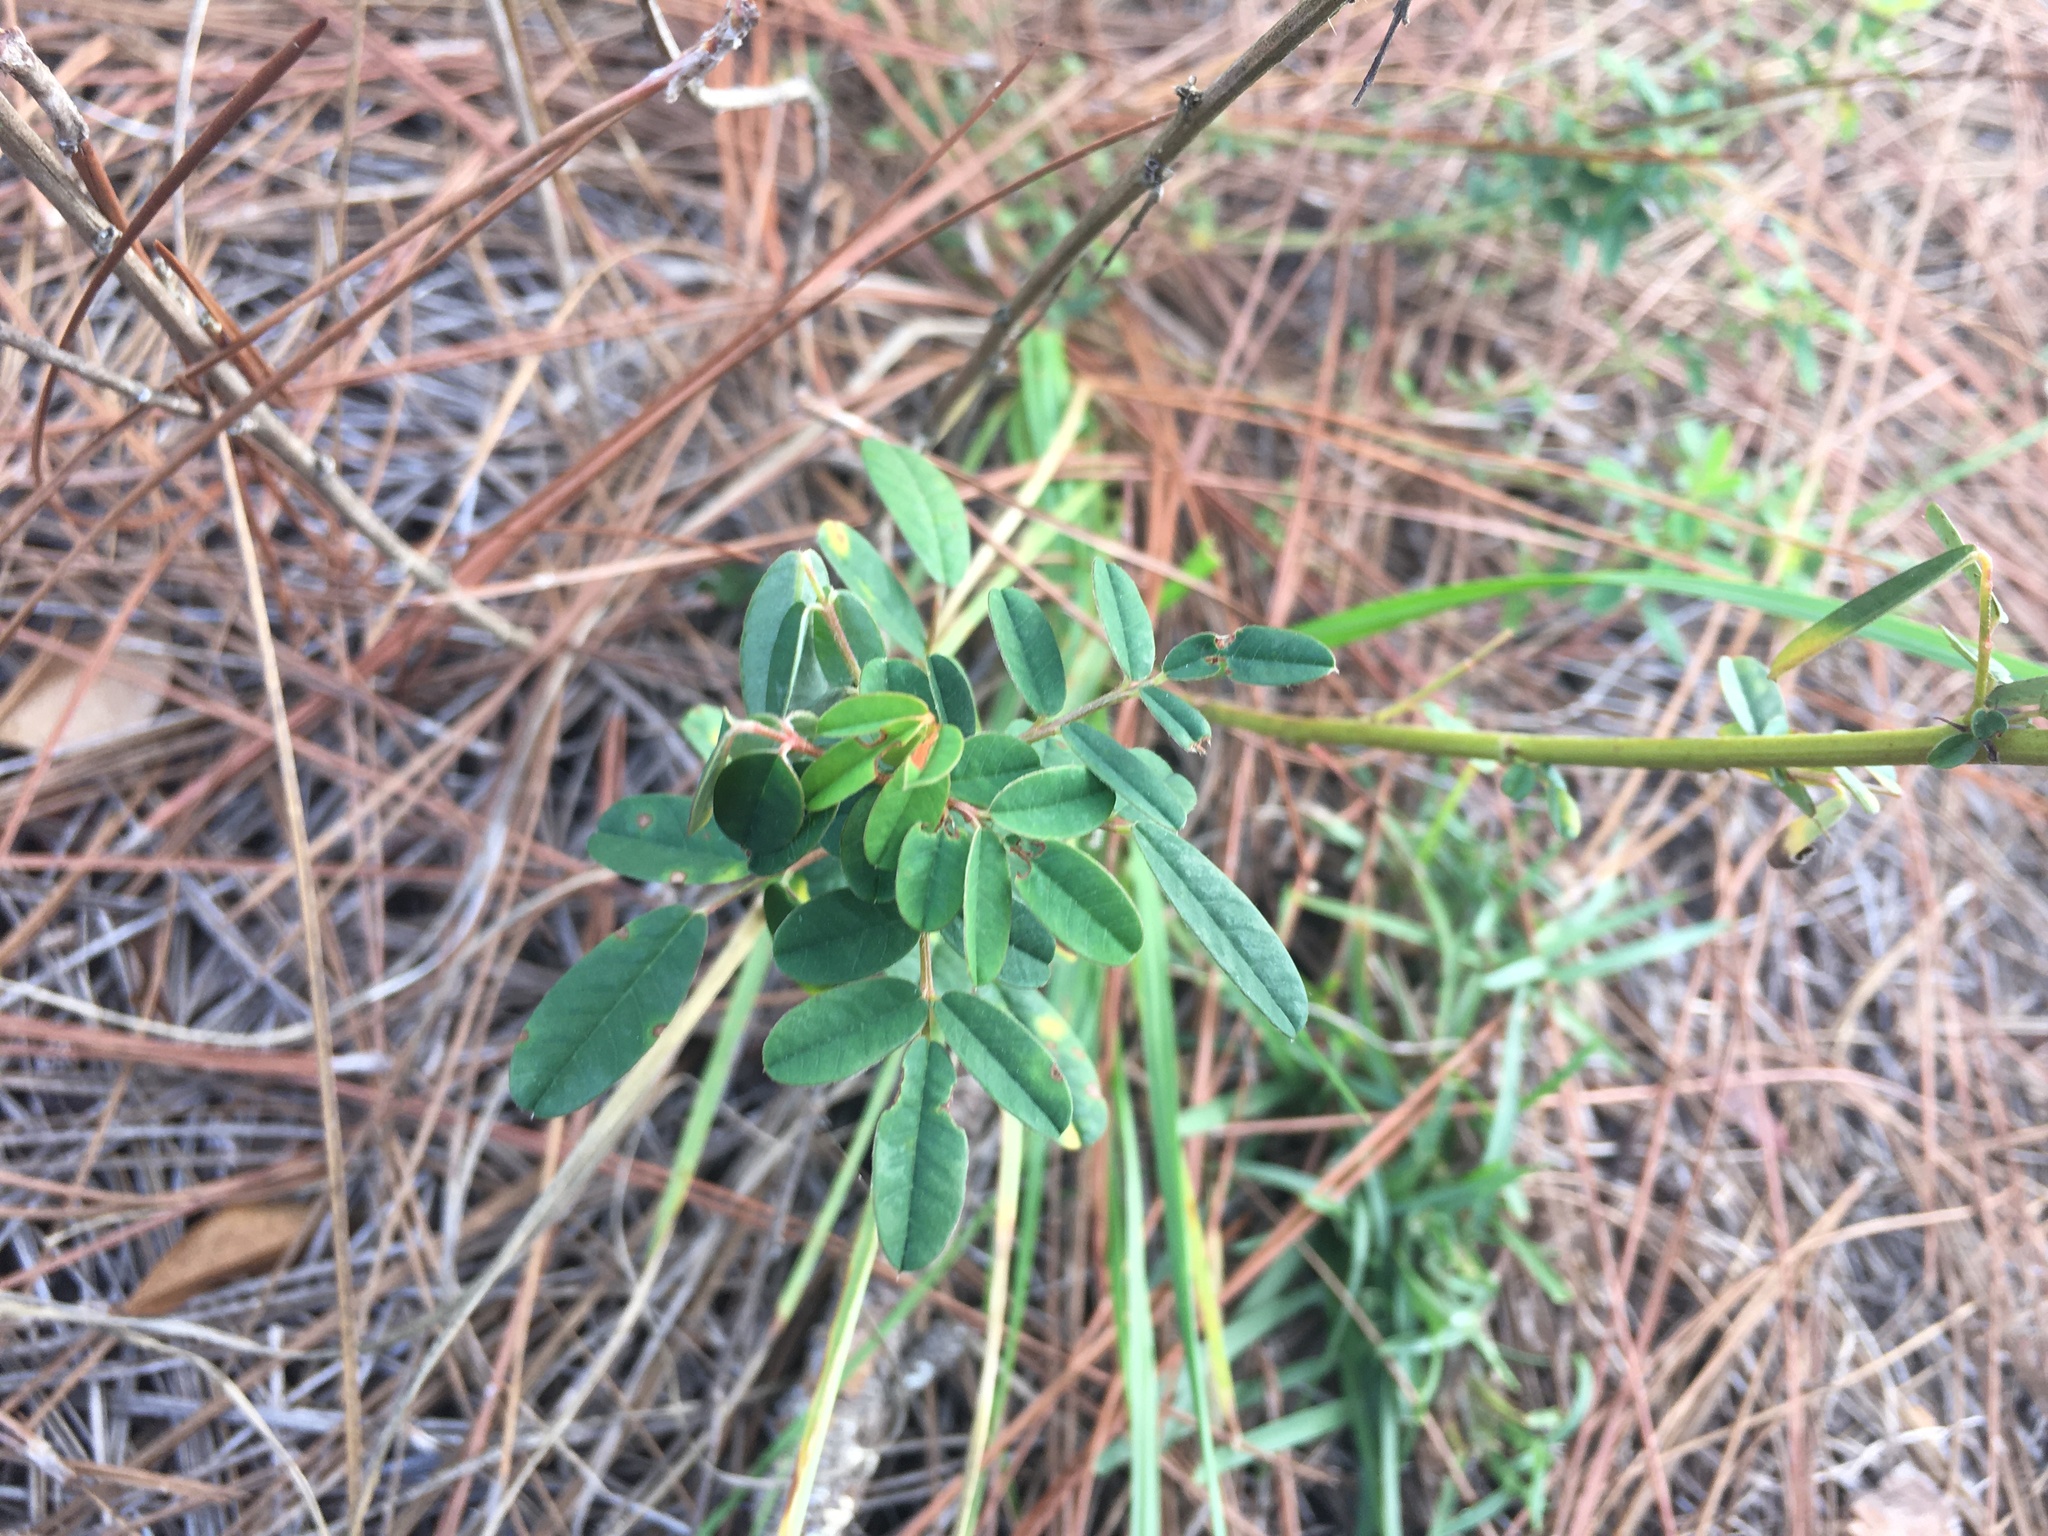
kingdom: Plantae
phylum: Tracheophyta
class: Magnoliopsida
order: Fabales
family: Fabaceae
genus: Chapmannia
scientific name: Chapmannia floridana
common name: Alicia
